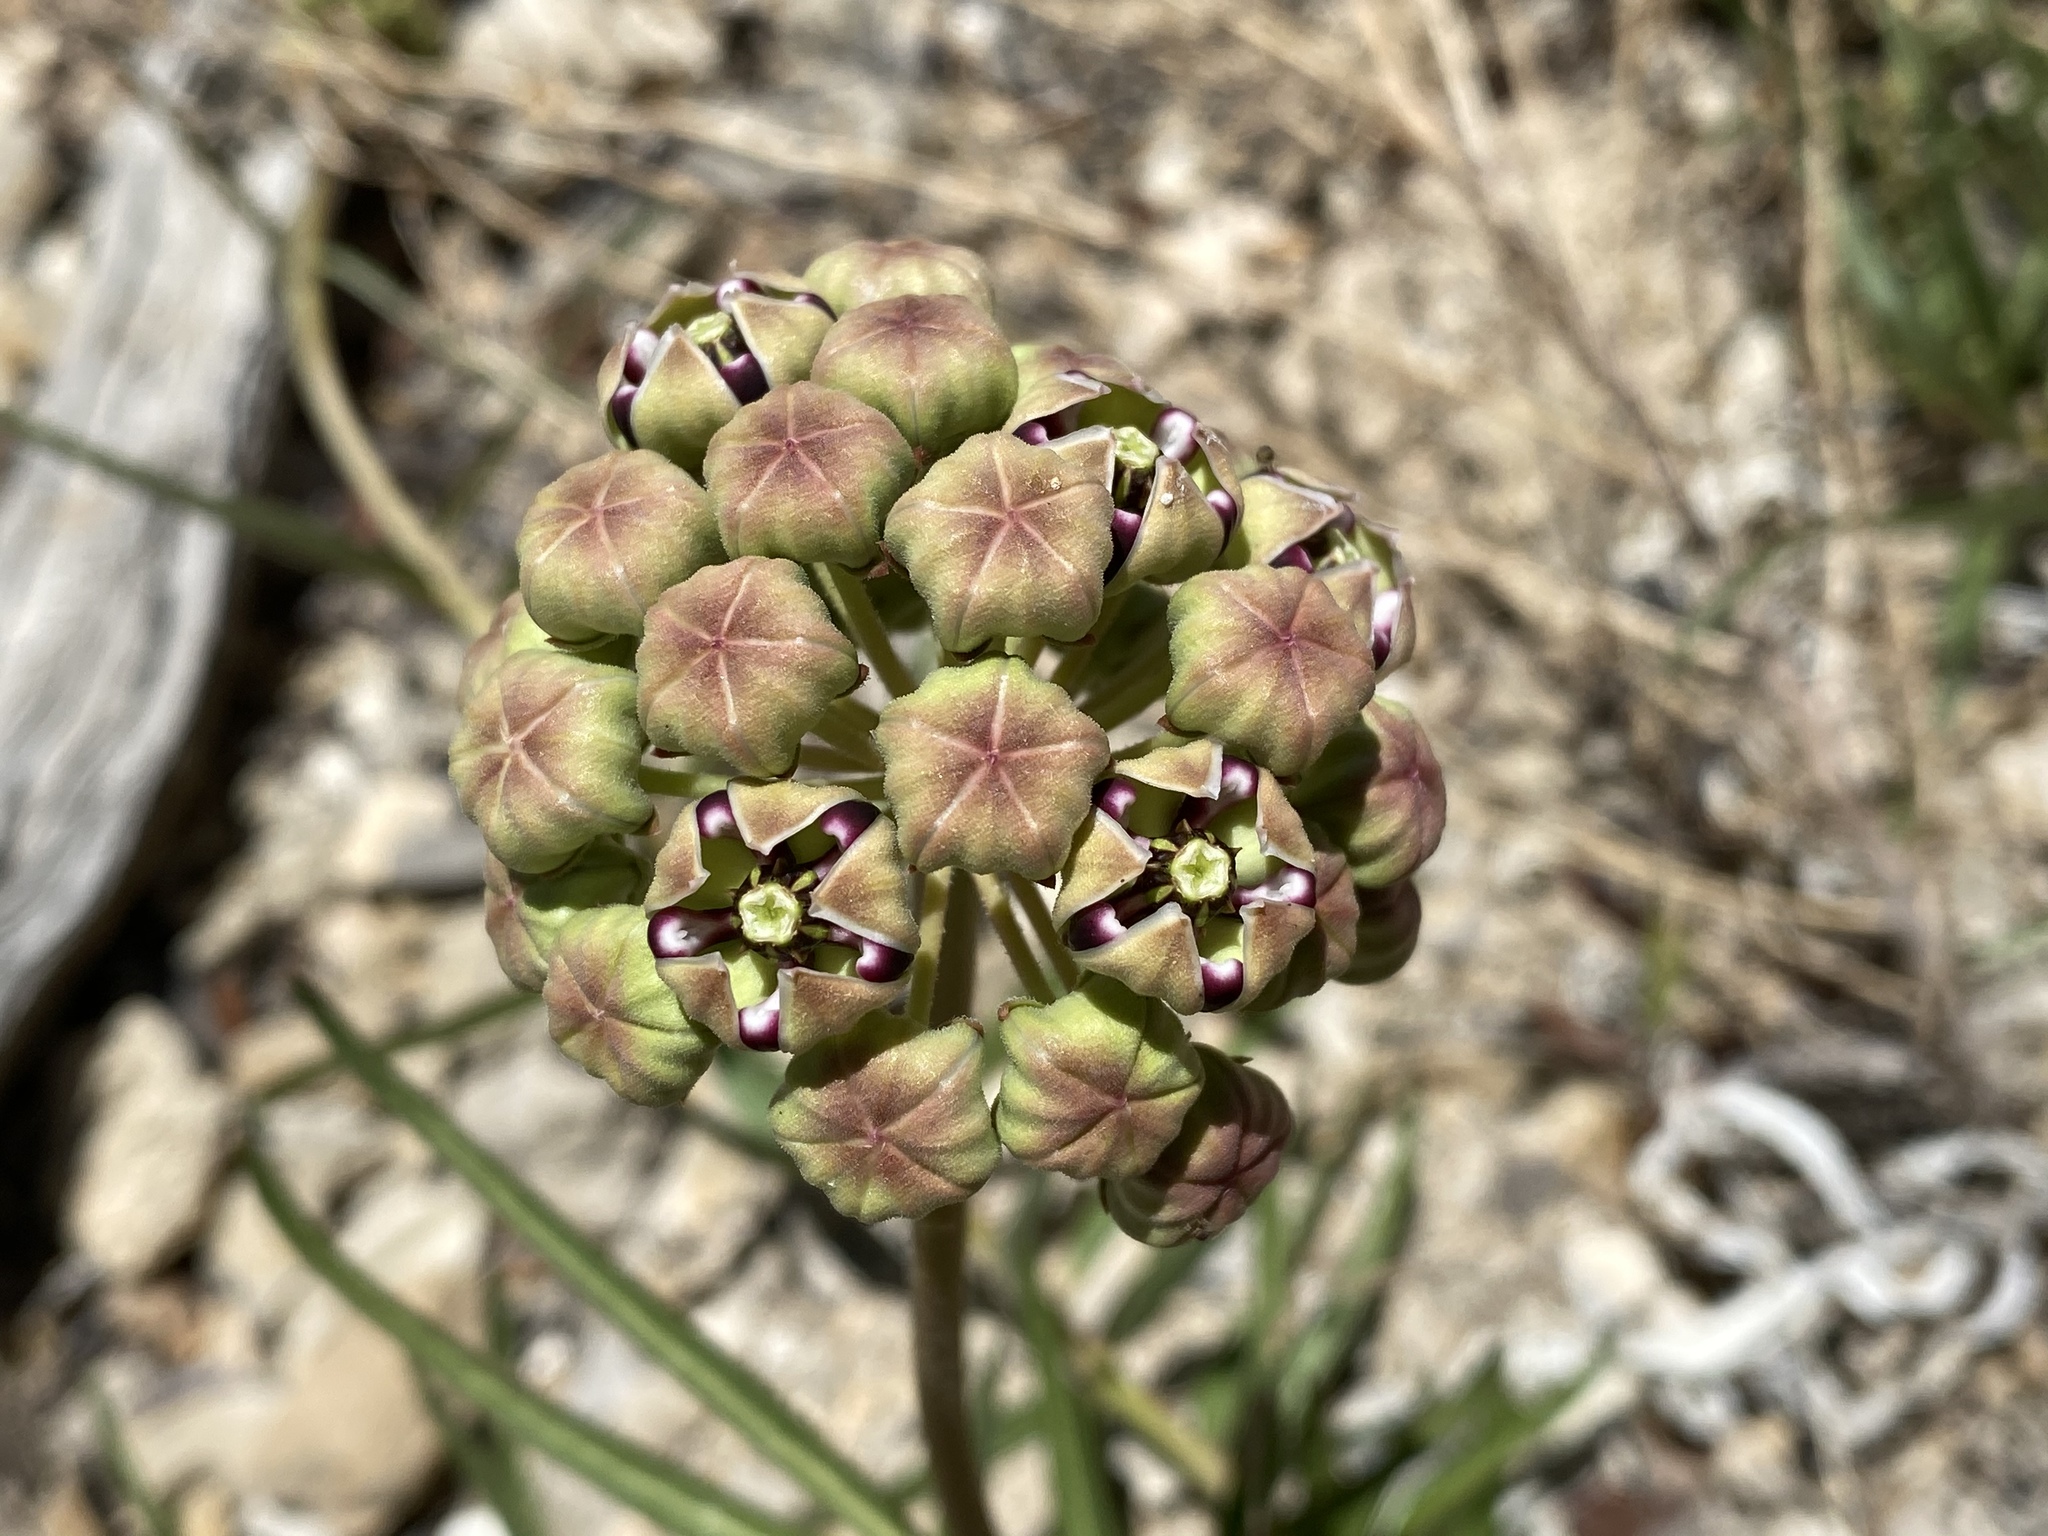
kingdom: Plantae
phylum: Tracheophyta
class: Magnoliopsida
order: Gentianales
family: Apocynaceae
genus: Asclepias
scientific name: Asclepias asperula
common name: Antelope horns
